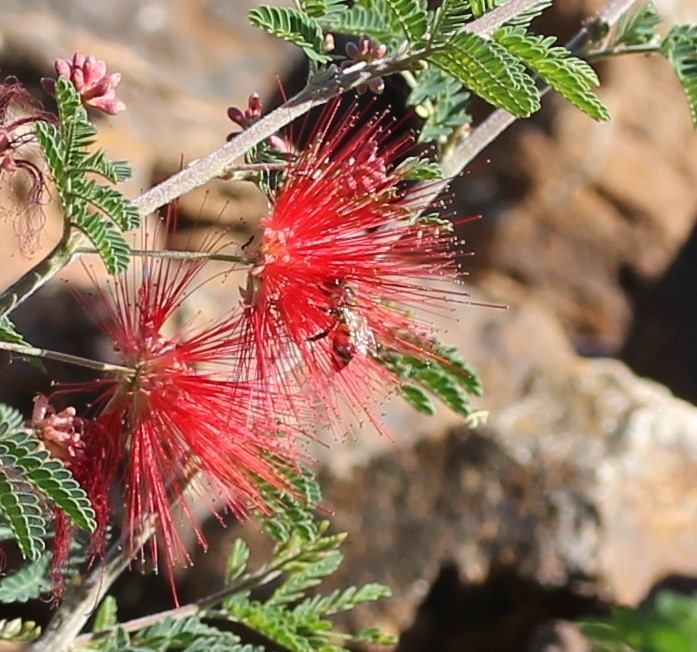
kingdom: Animalia
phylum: Arthropoda
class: Insecta
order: Hymenoptera
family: Apidae
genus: Apis
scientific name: Apis mellifera
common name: Honey bee
